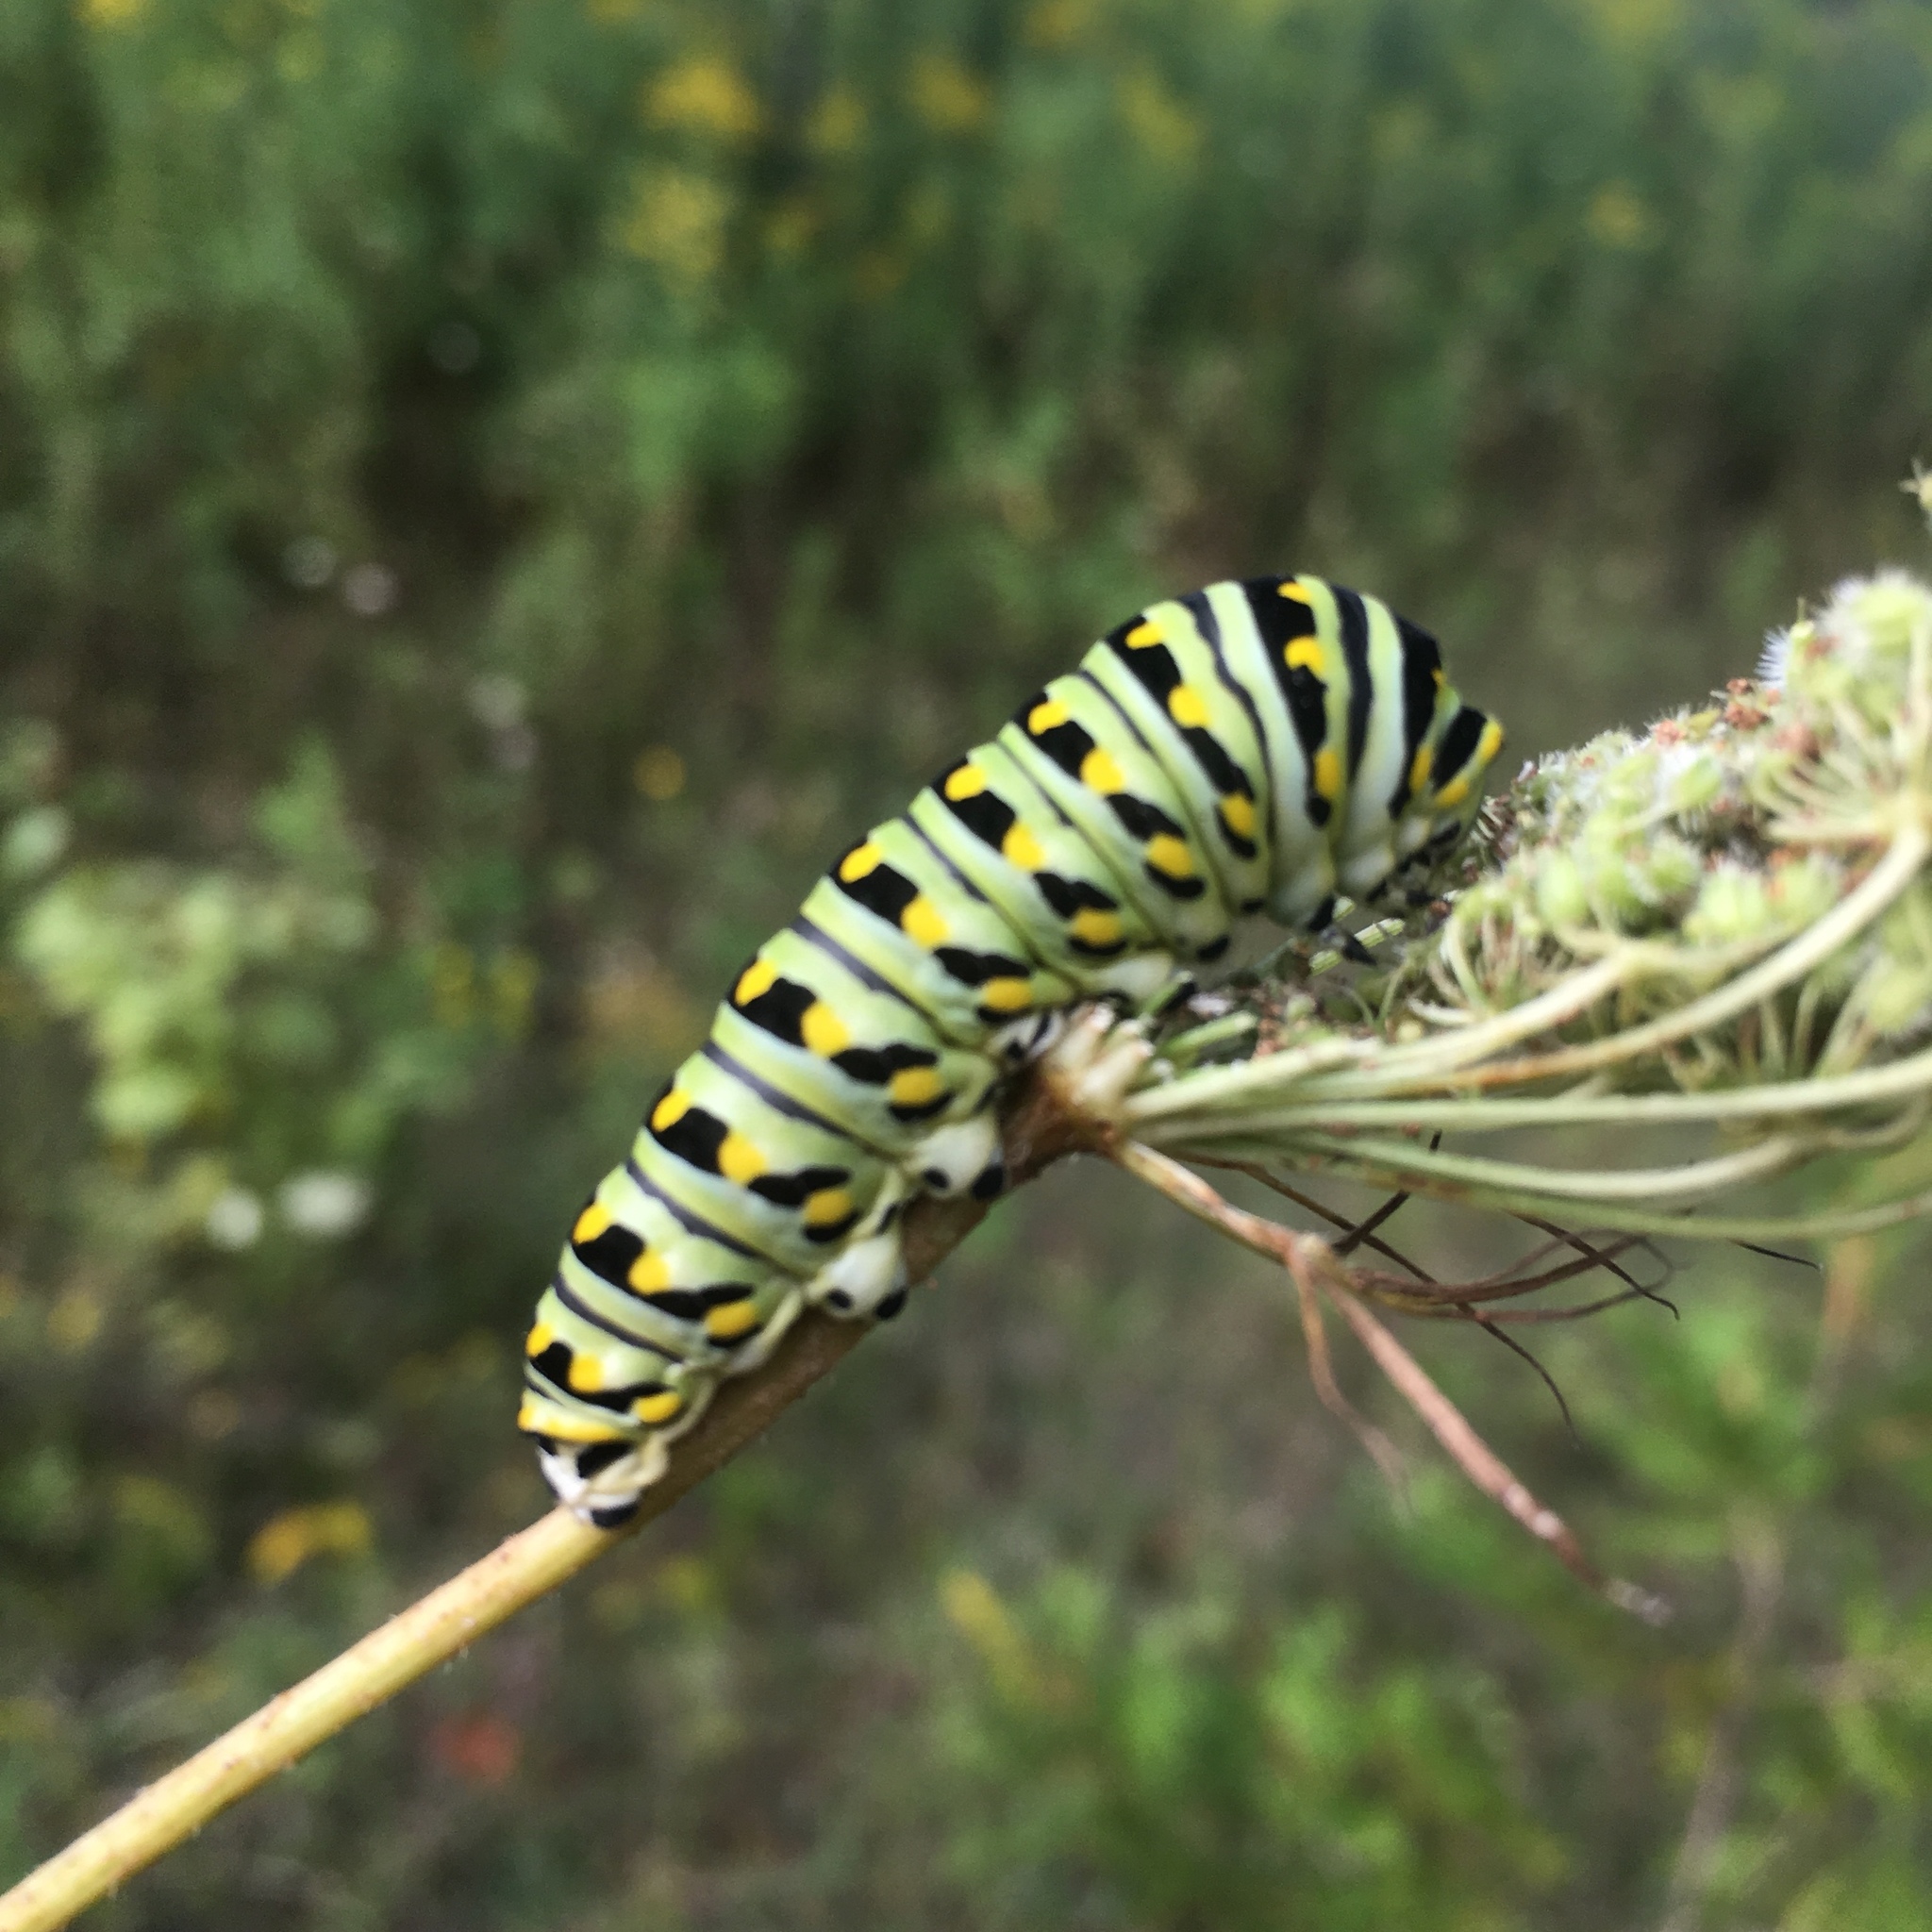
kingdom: Animalia
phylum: Arthropoda
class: Insecta
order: Lepidoptera
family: Papilionidae
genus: Papilio
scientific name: Papilio polyxenes
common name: Black swallowtail
